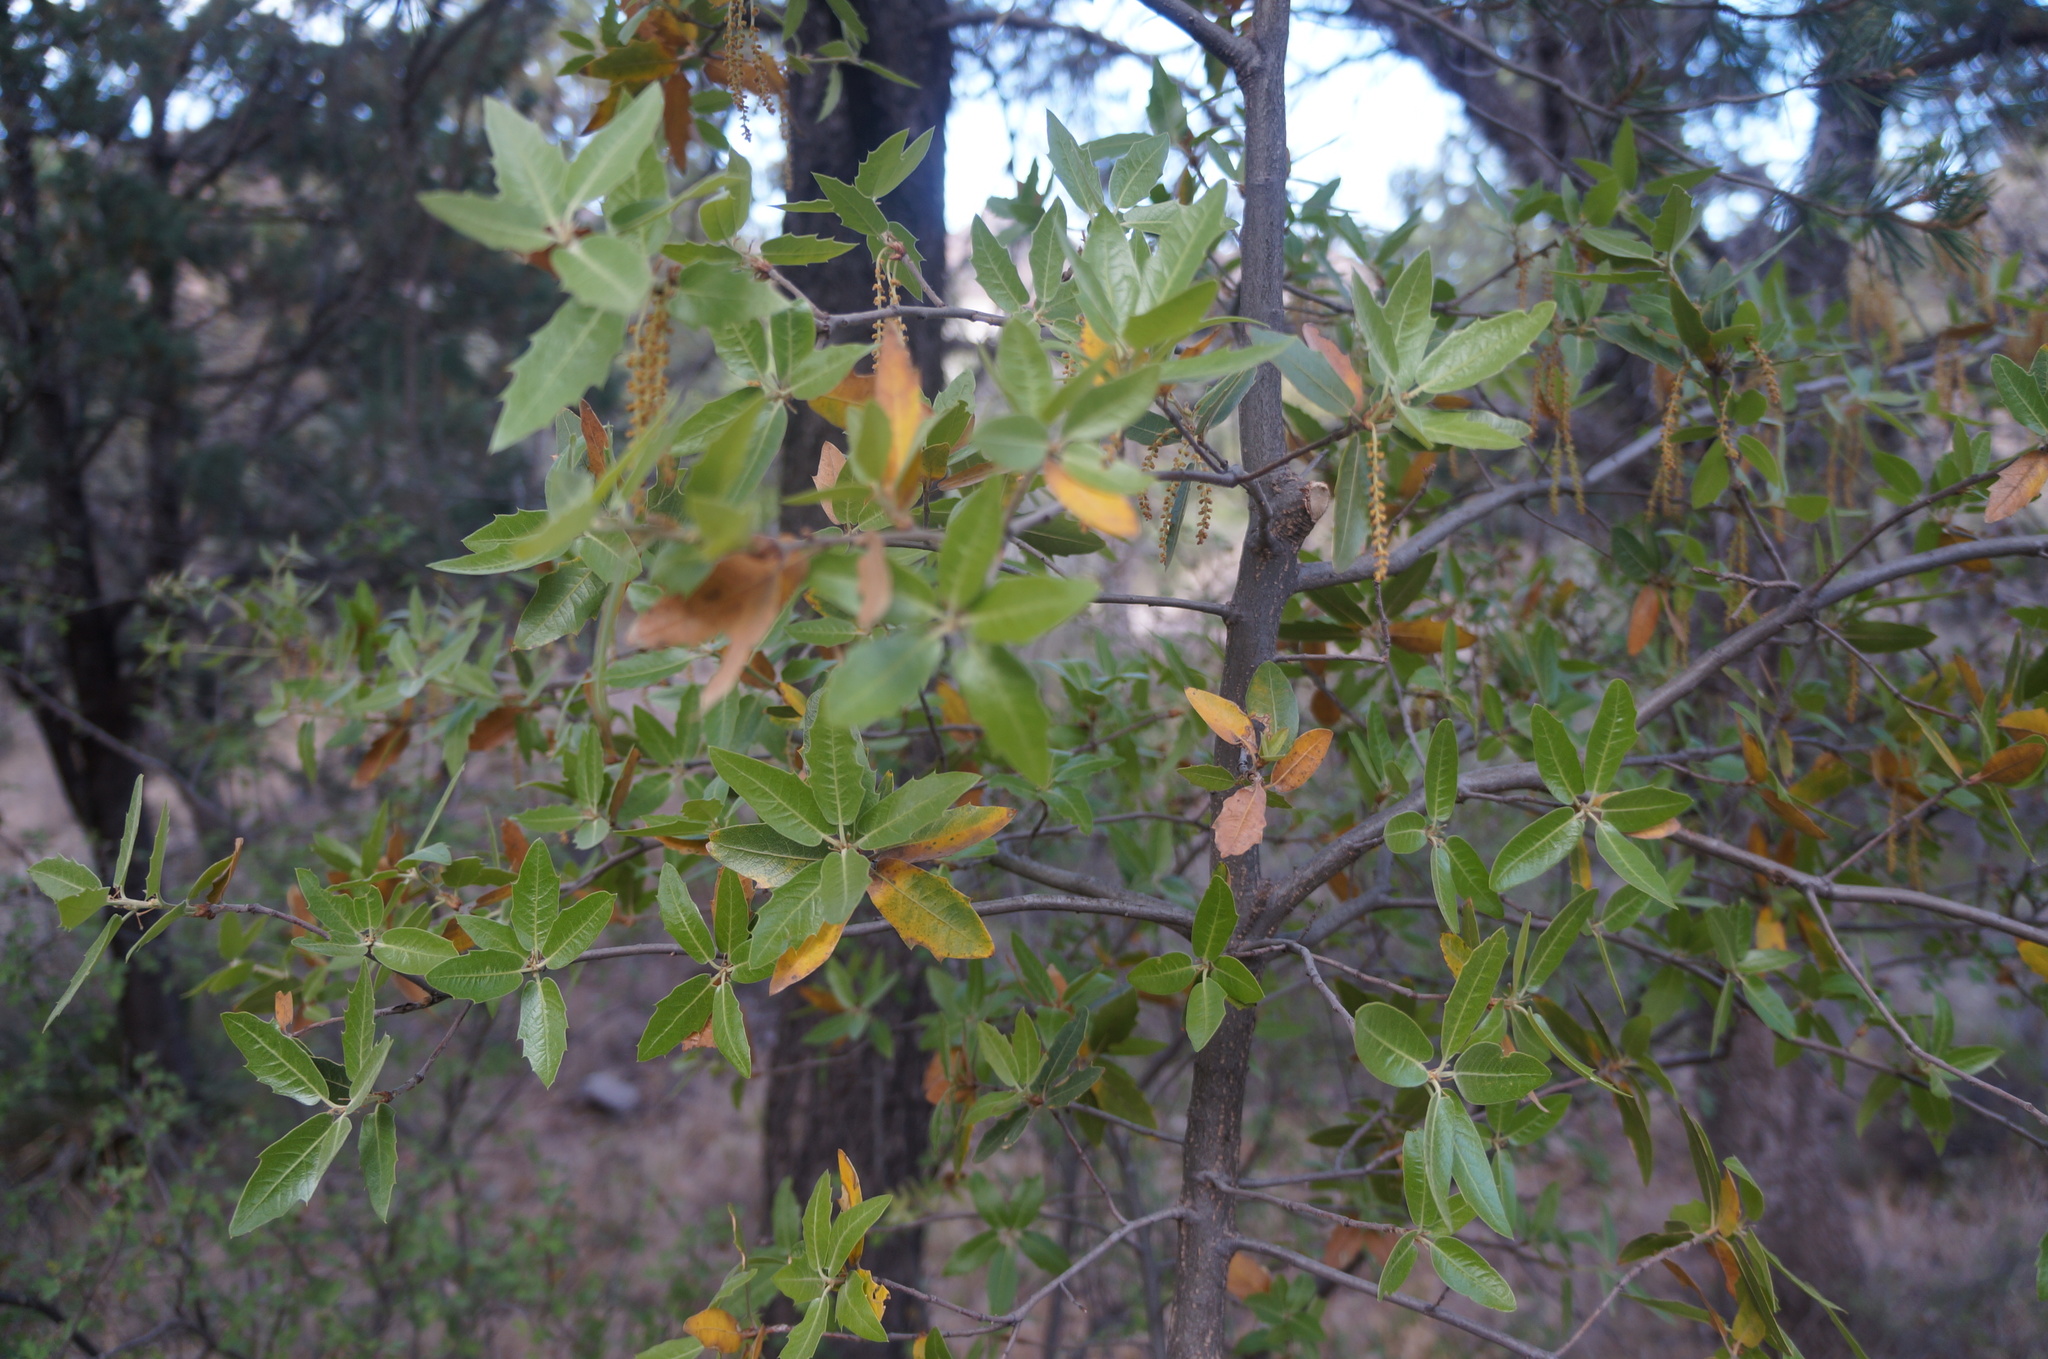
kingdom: Plantae
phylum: Tracheophyta
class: Magnoliopsida
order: Fagales
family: Fagaceae
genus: Quercus
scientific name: Quercus emoryi
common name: Emory oak
